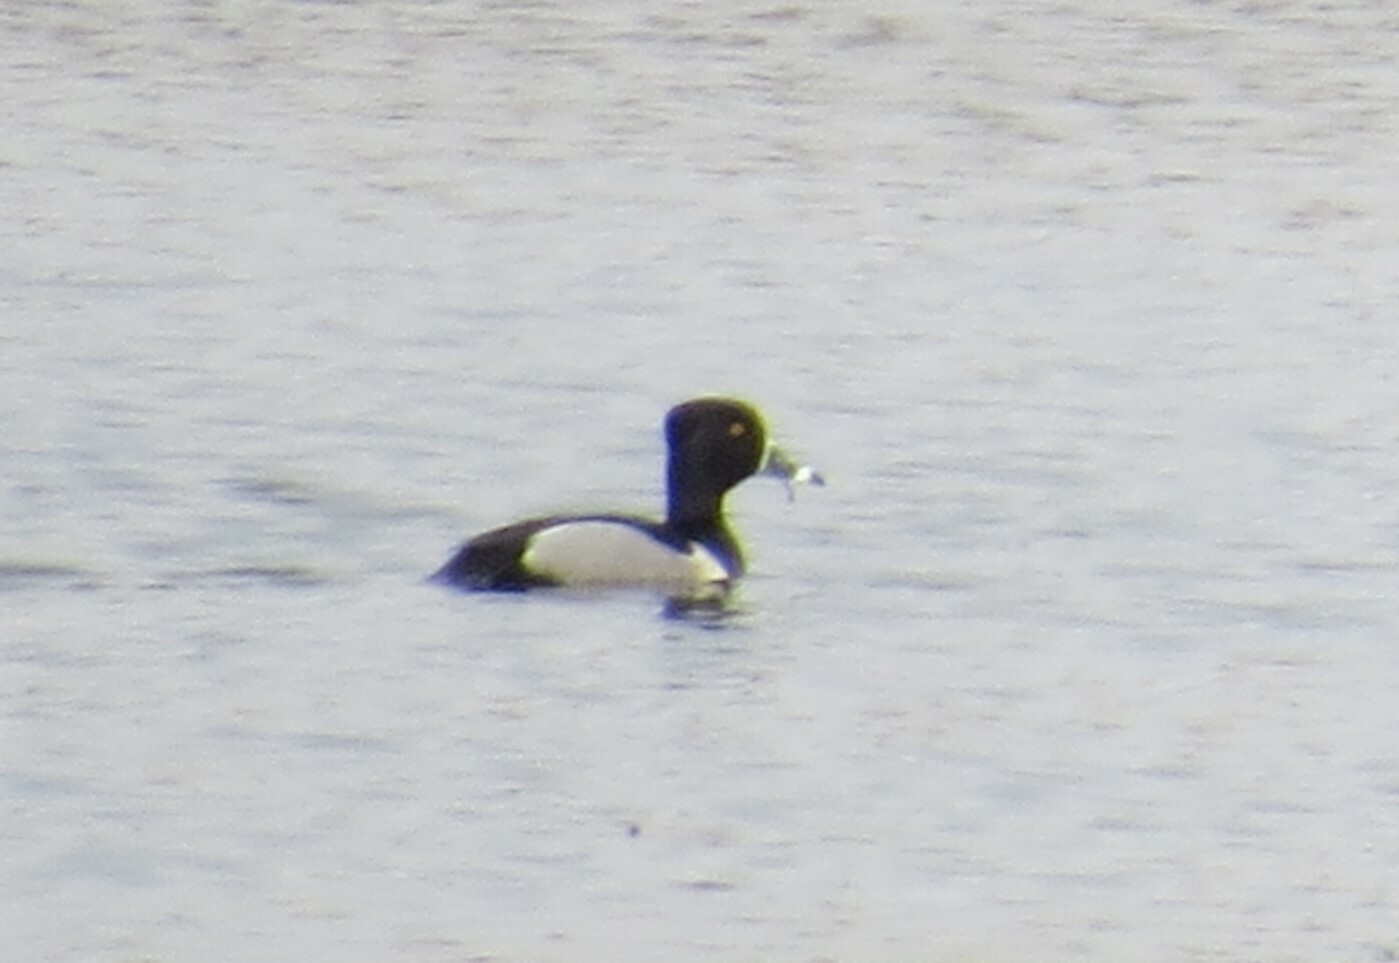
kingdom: Animalia
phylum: Chordata
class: Aves
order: Anseriformes
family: Anatidae
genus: Aythya
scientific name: Aythya collaris
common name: Ring-necked duck
